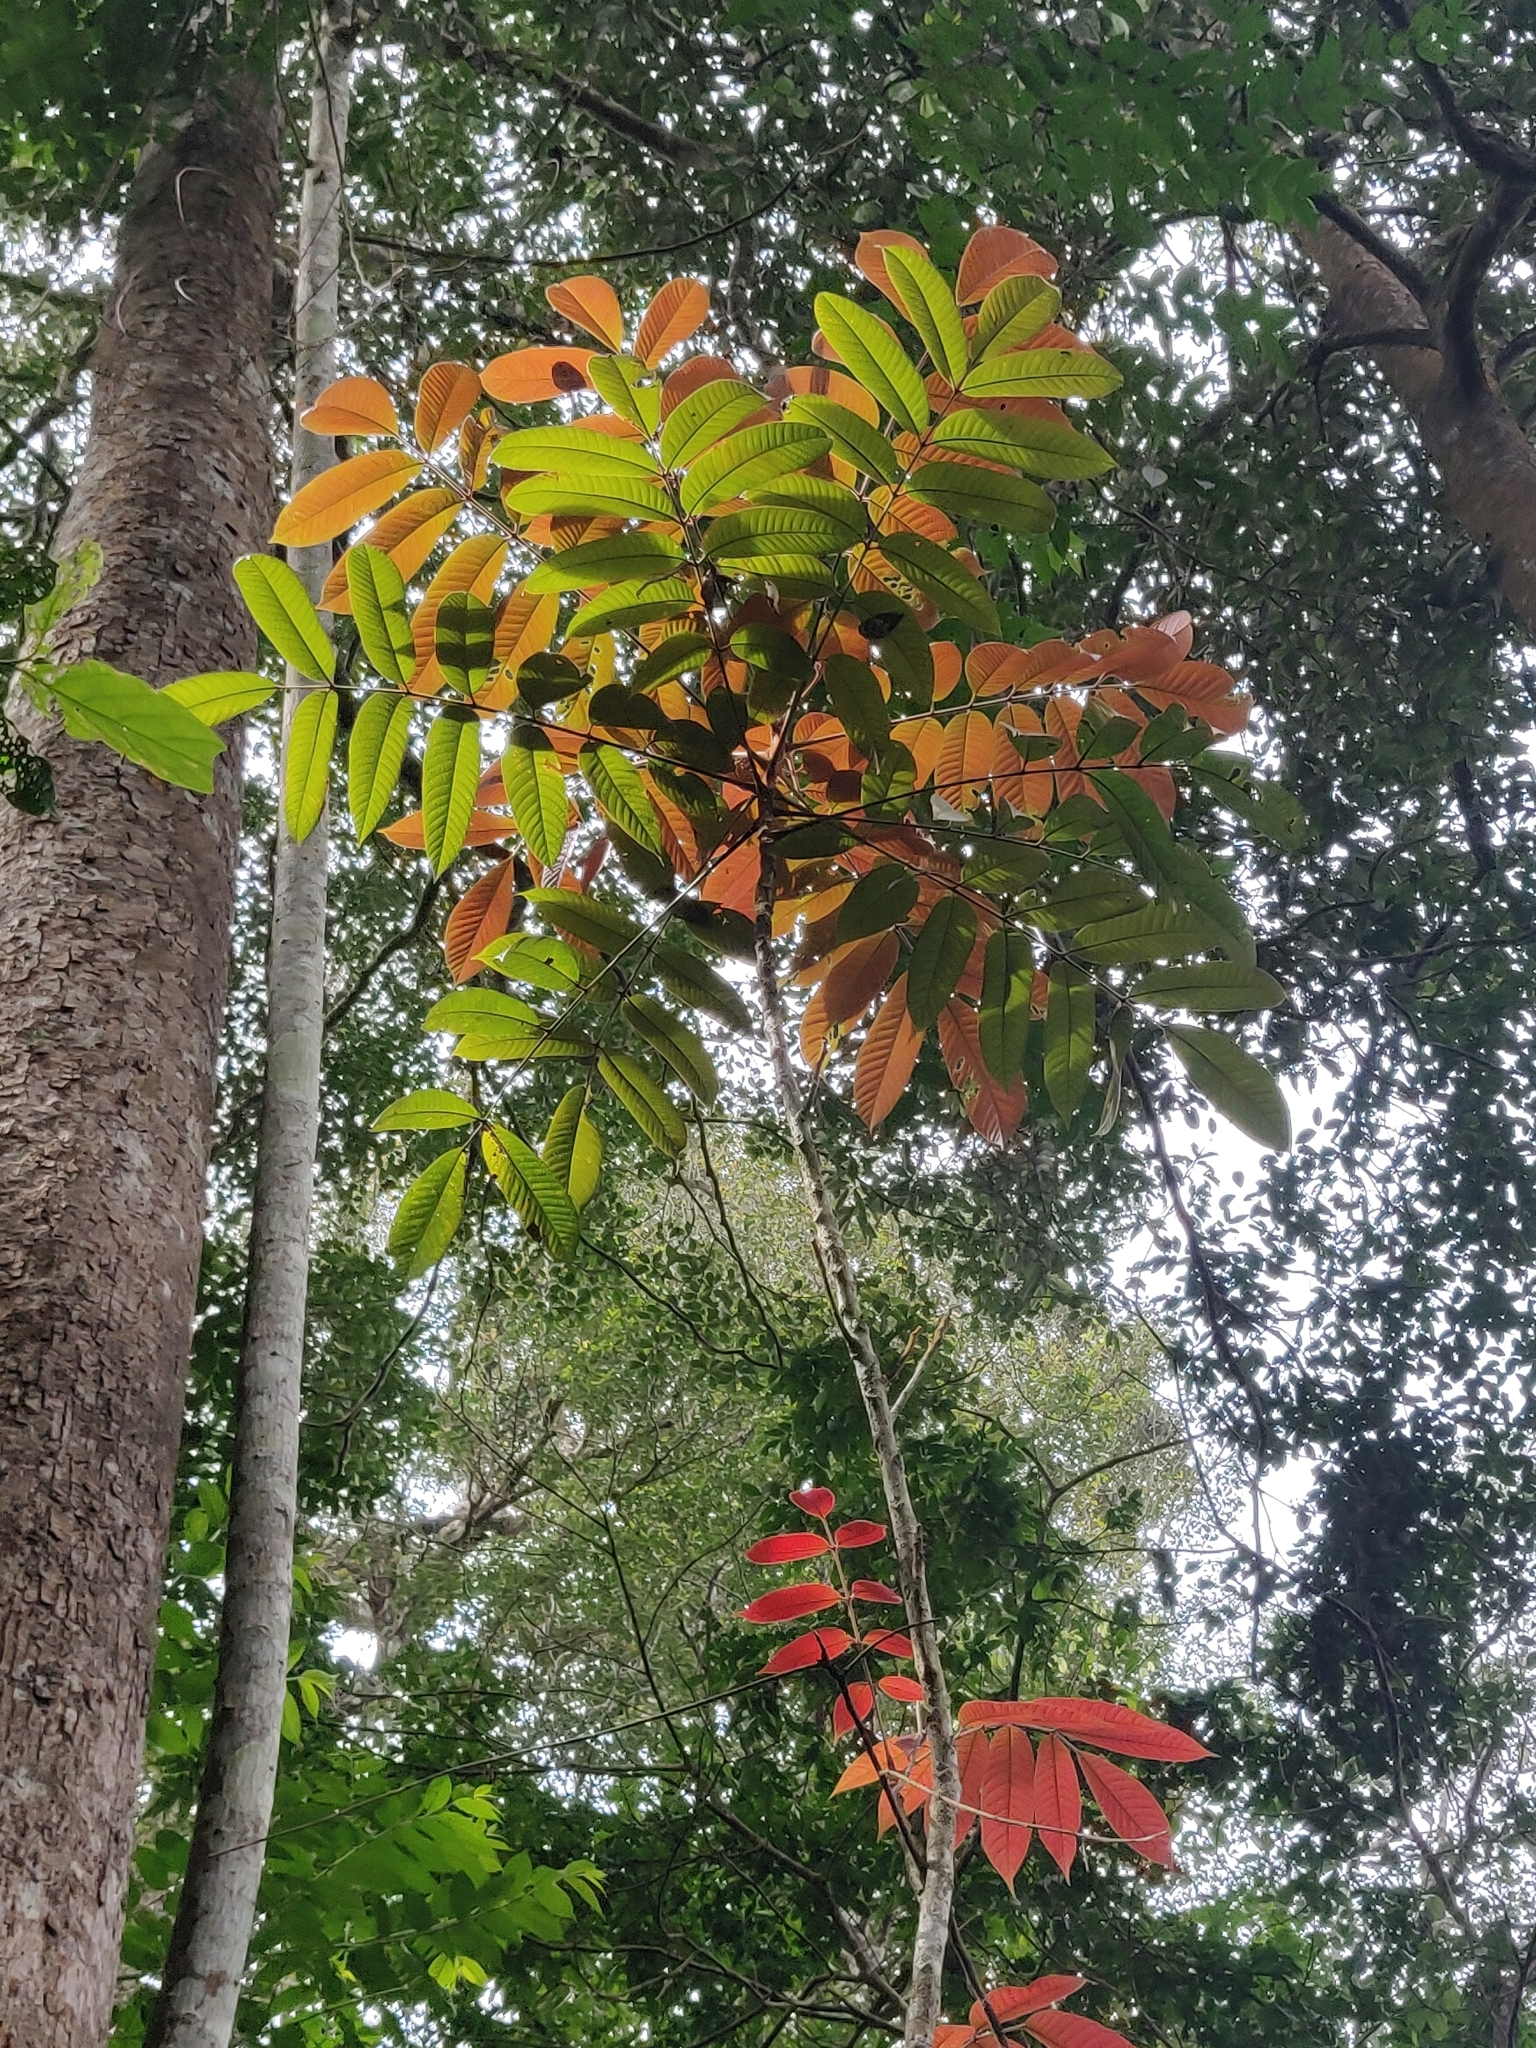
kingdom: Plantae
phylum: Tracheophyta
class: Magnoliopsida
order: Sapindales
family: Burseraceae
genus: Canarium
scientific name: Canarium strictum
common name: Indian white-mahogany
